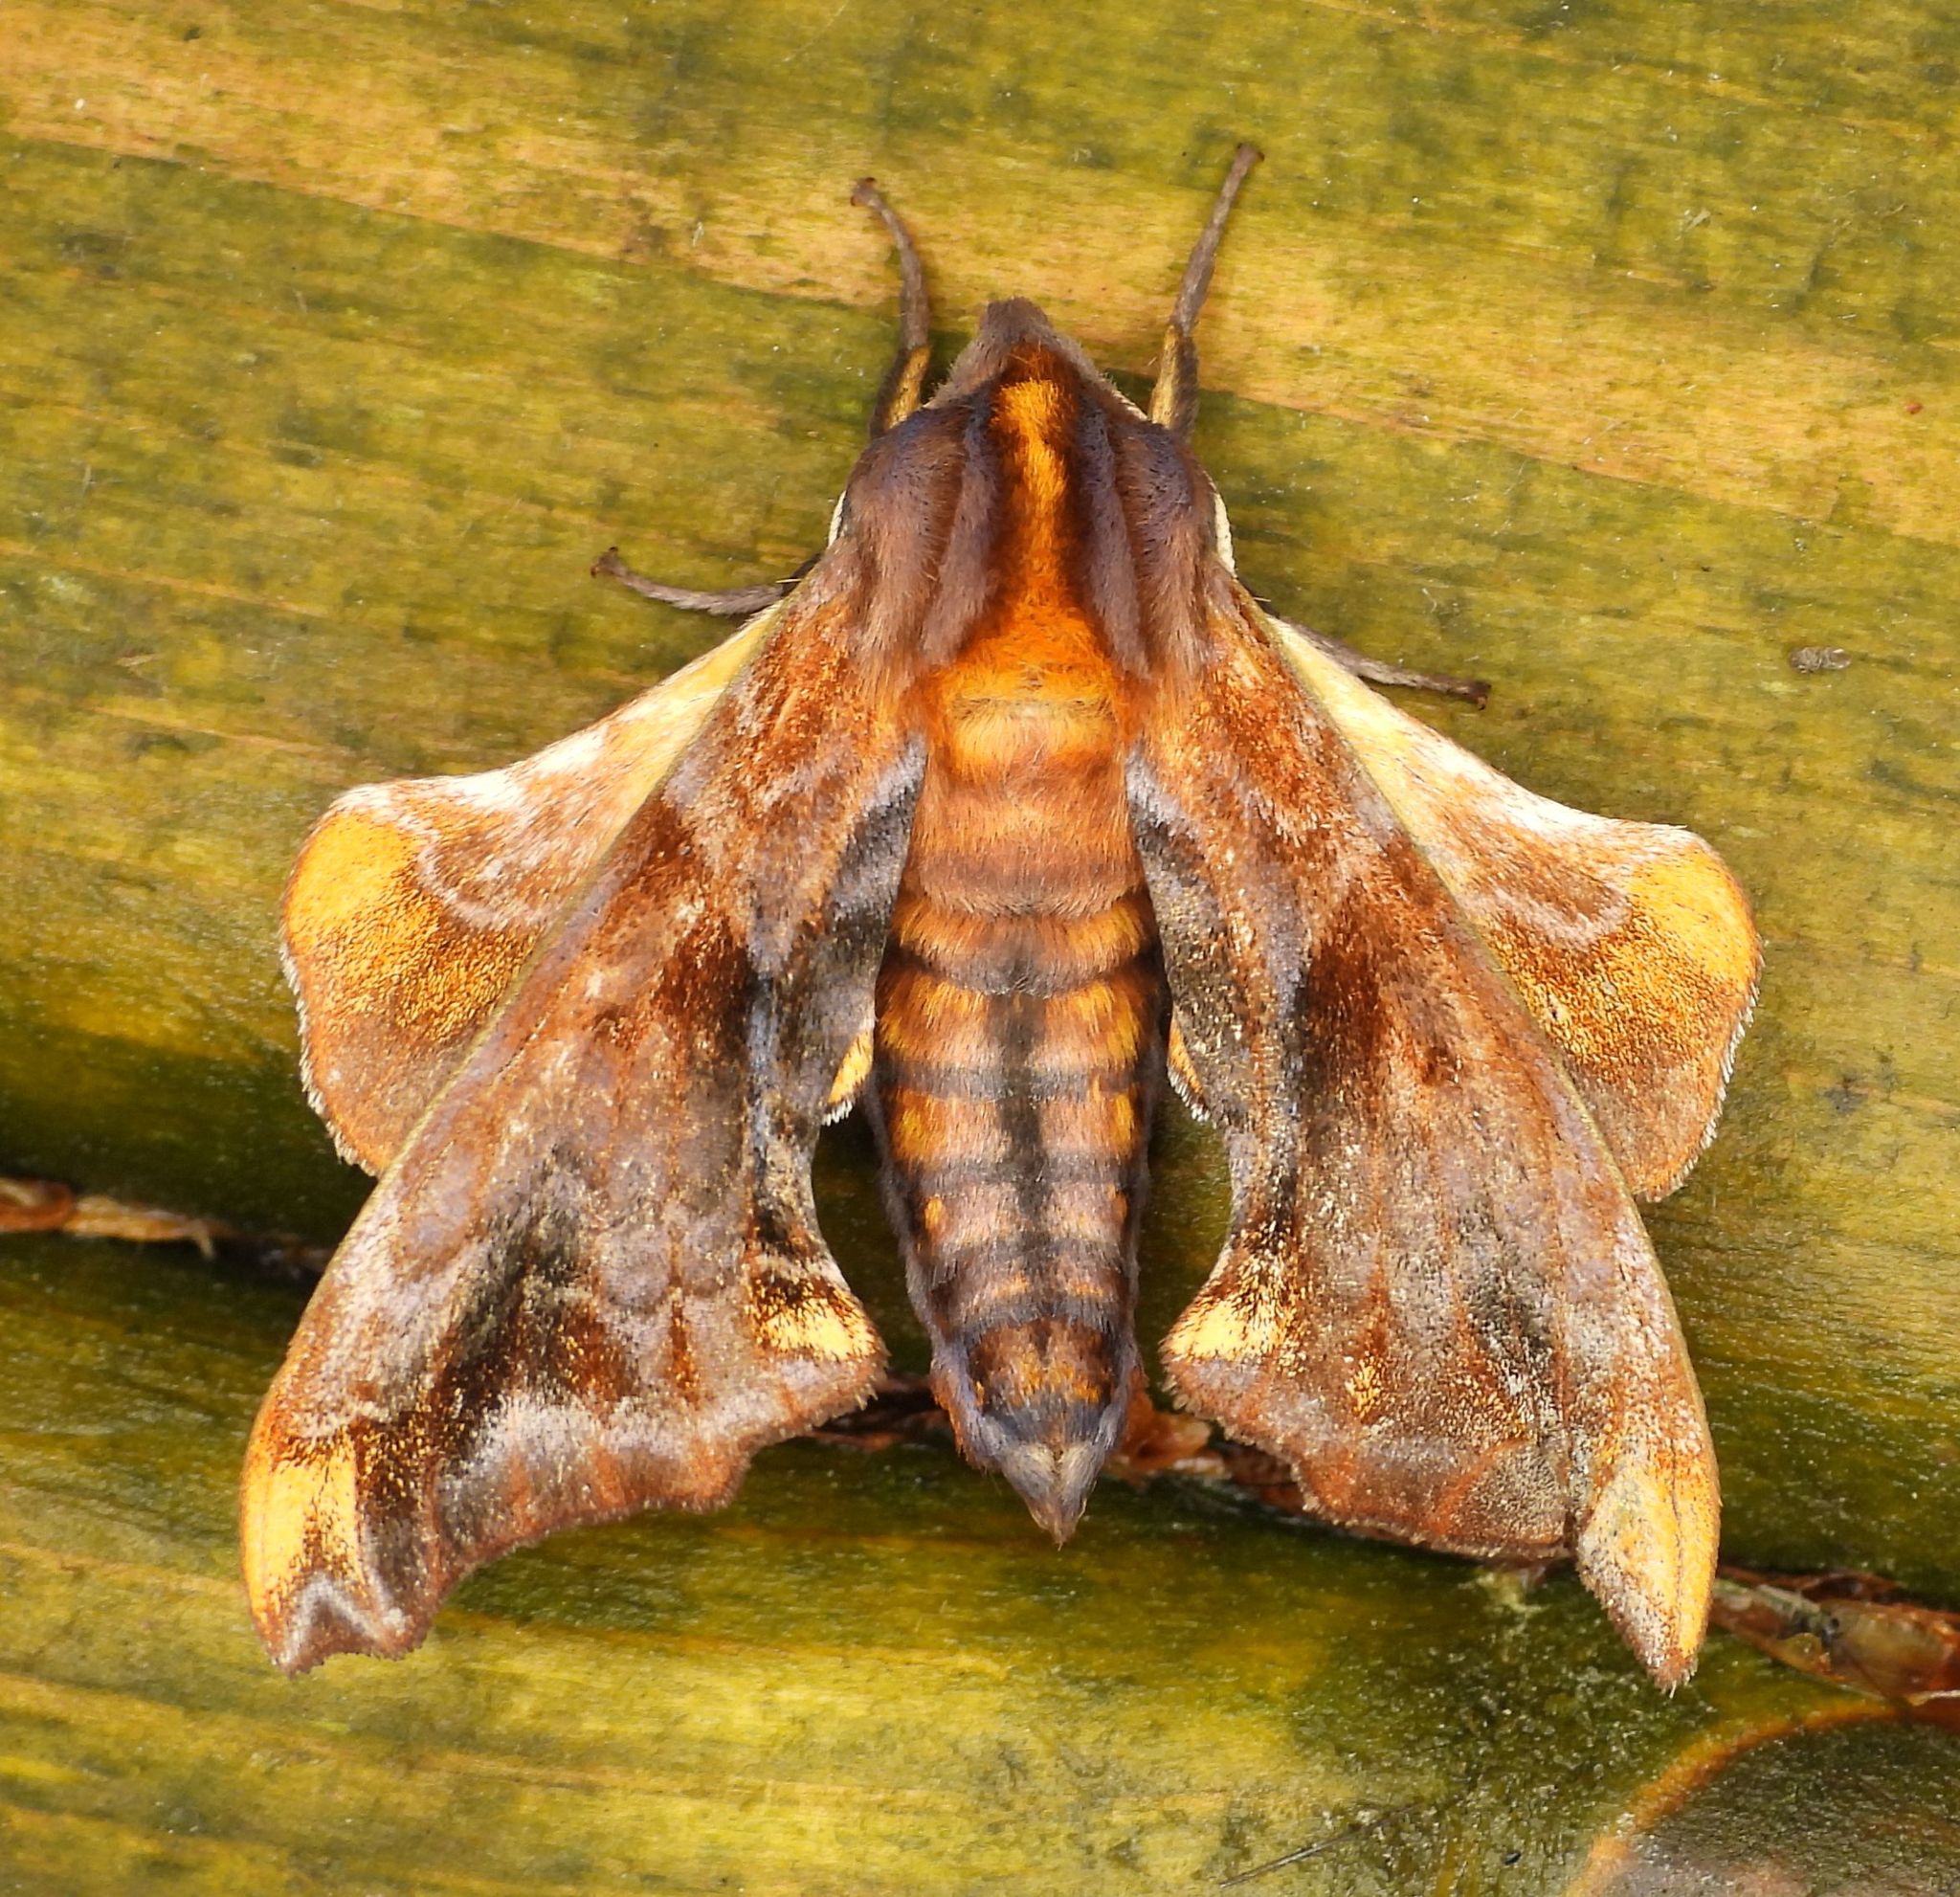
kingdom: Animalia
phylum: Arthropoda
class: Insecta
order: Lepidoptera
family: Sphingidae
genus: Paonias
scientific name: Paonias myops
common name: Small-eyed sphinx
